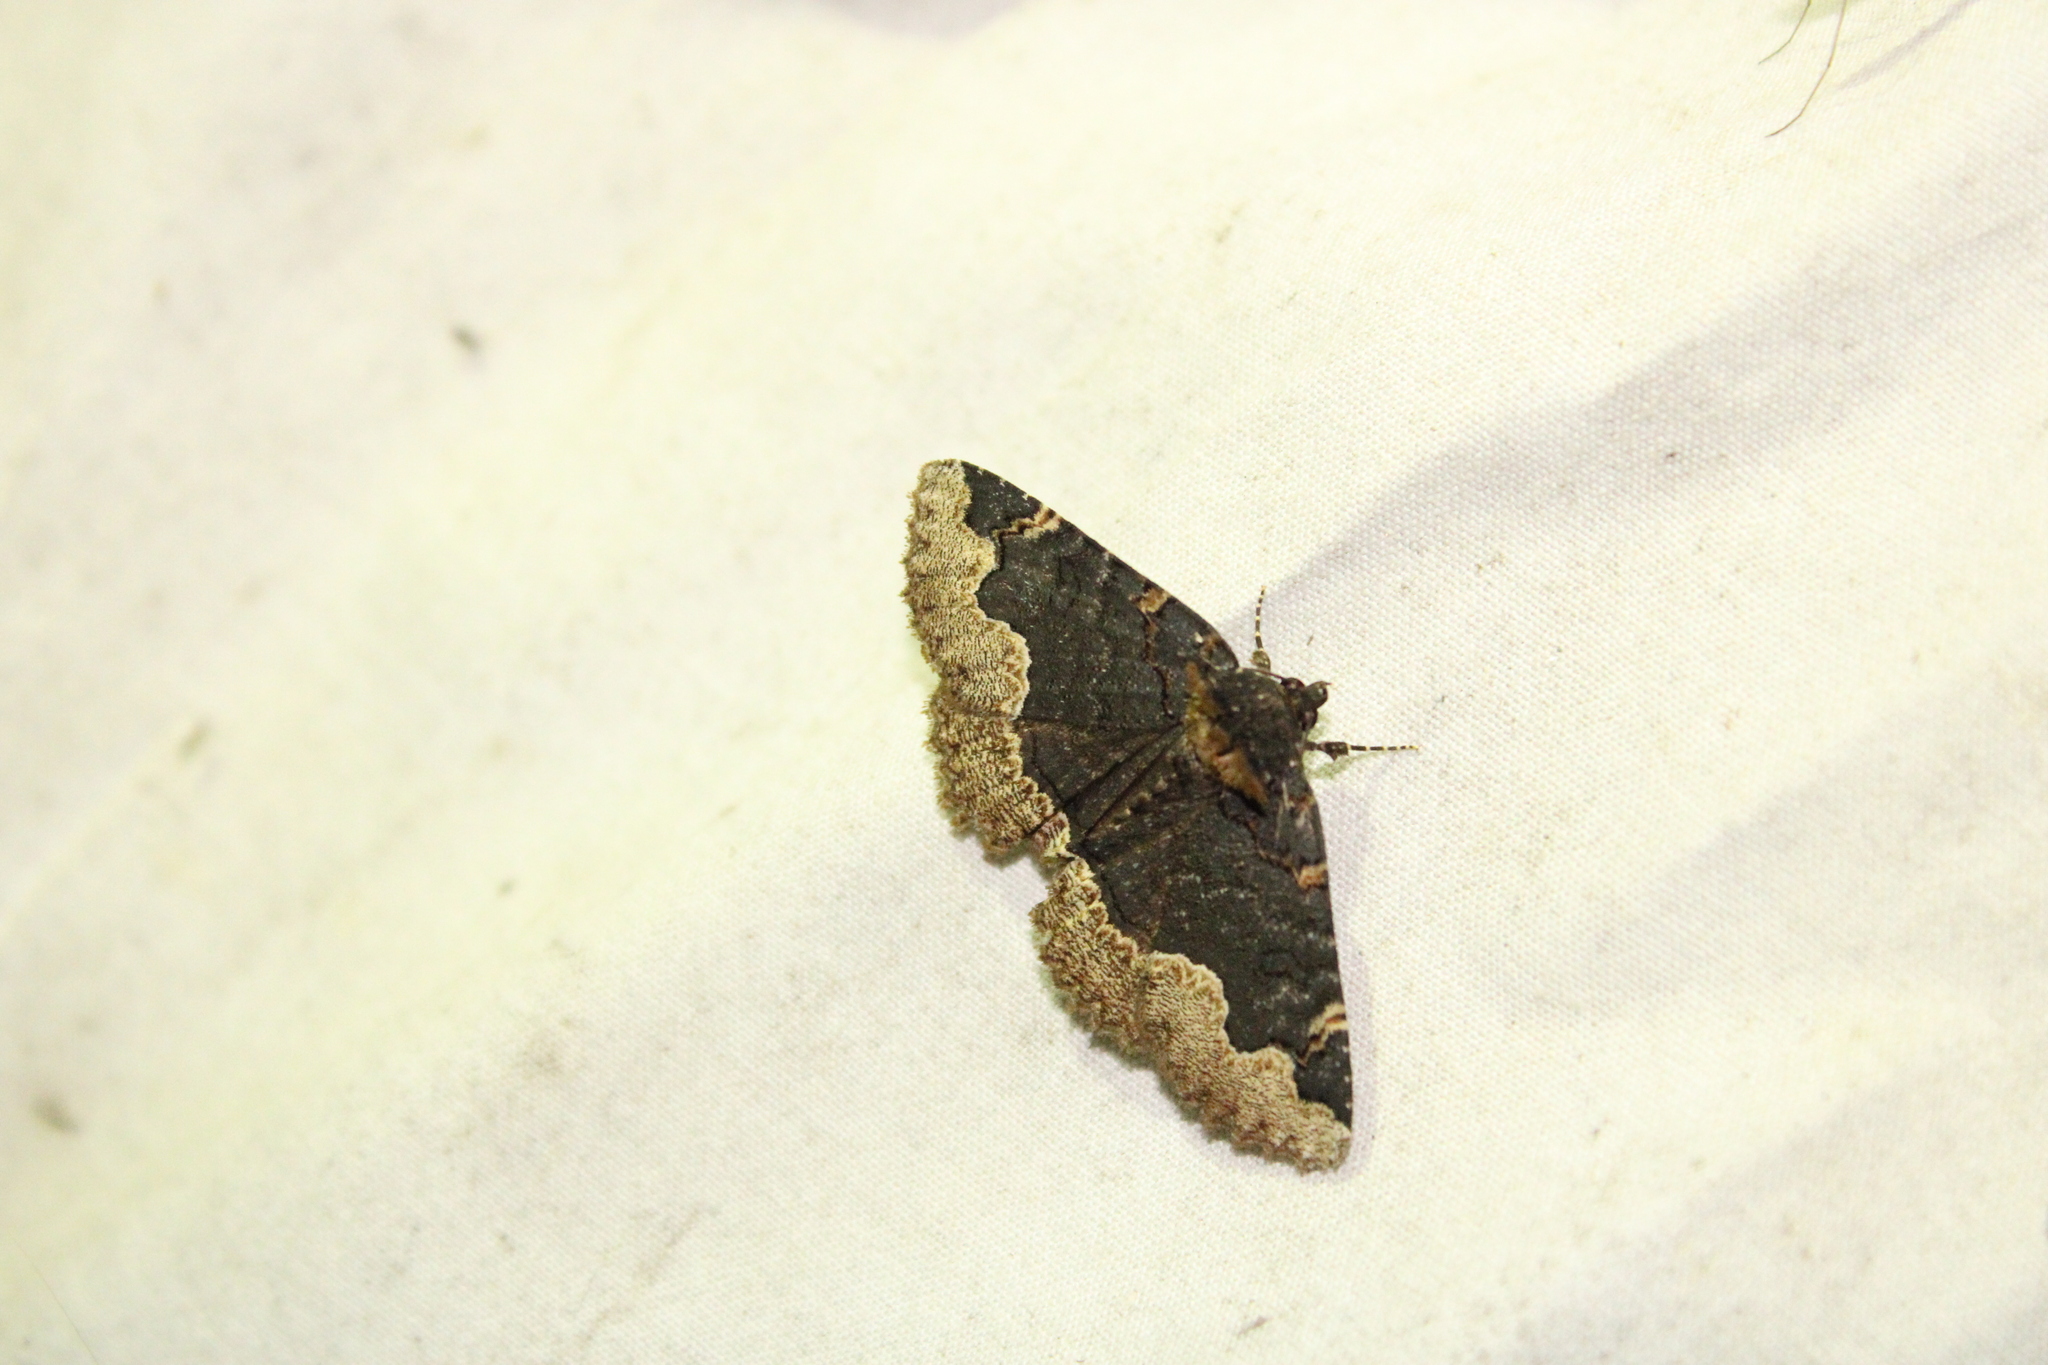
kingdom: Animalia
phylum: Arthropoda
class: Insecta
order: Lepidoptera
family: Erebidae
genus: Zale
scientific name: Zale horrida
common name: Horrid zale moth
